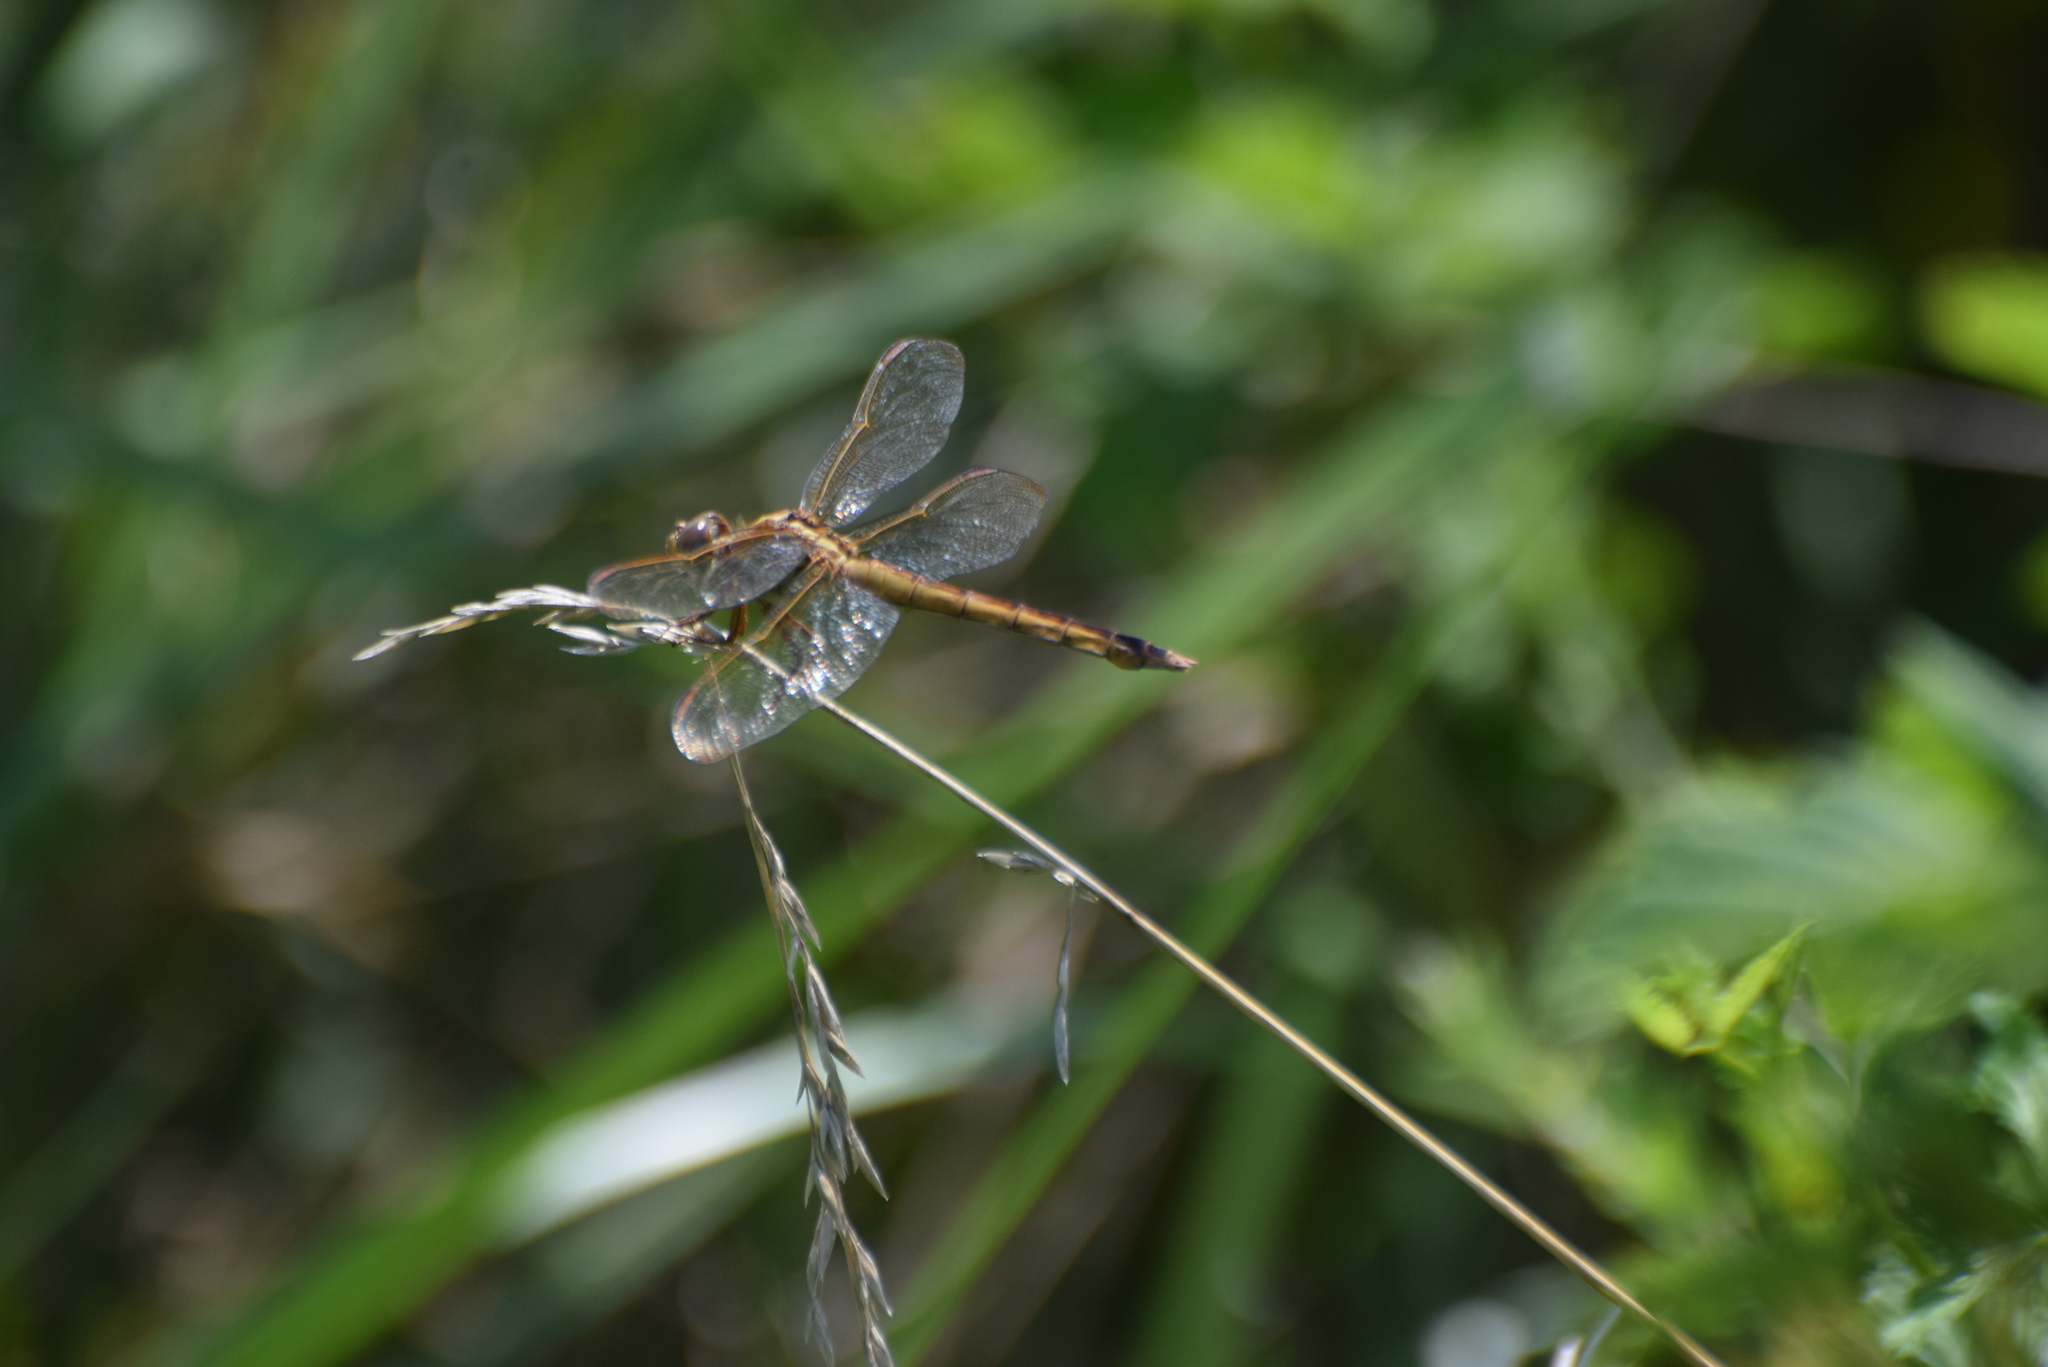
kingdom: Animalia
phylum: Arthropoda
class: Insecta
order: Odonata
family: Libellulidae
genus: Libellula
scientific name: Libellula needhami
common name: Needham's skimmer
